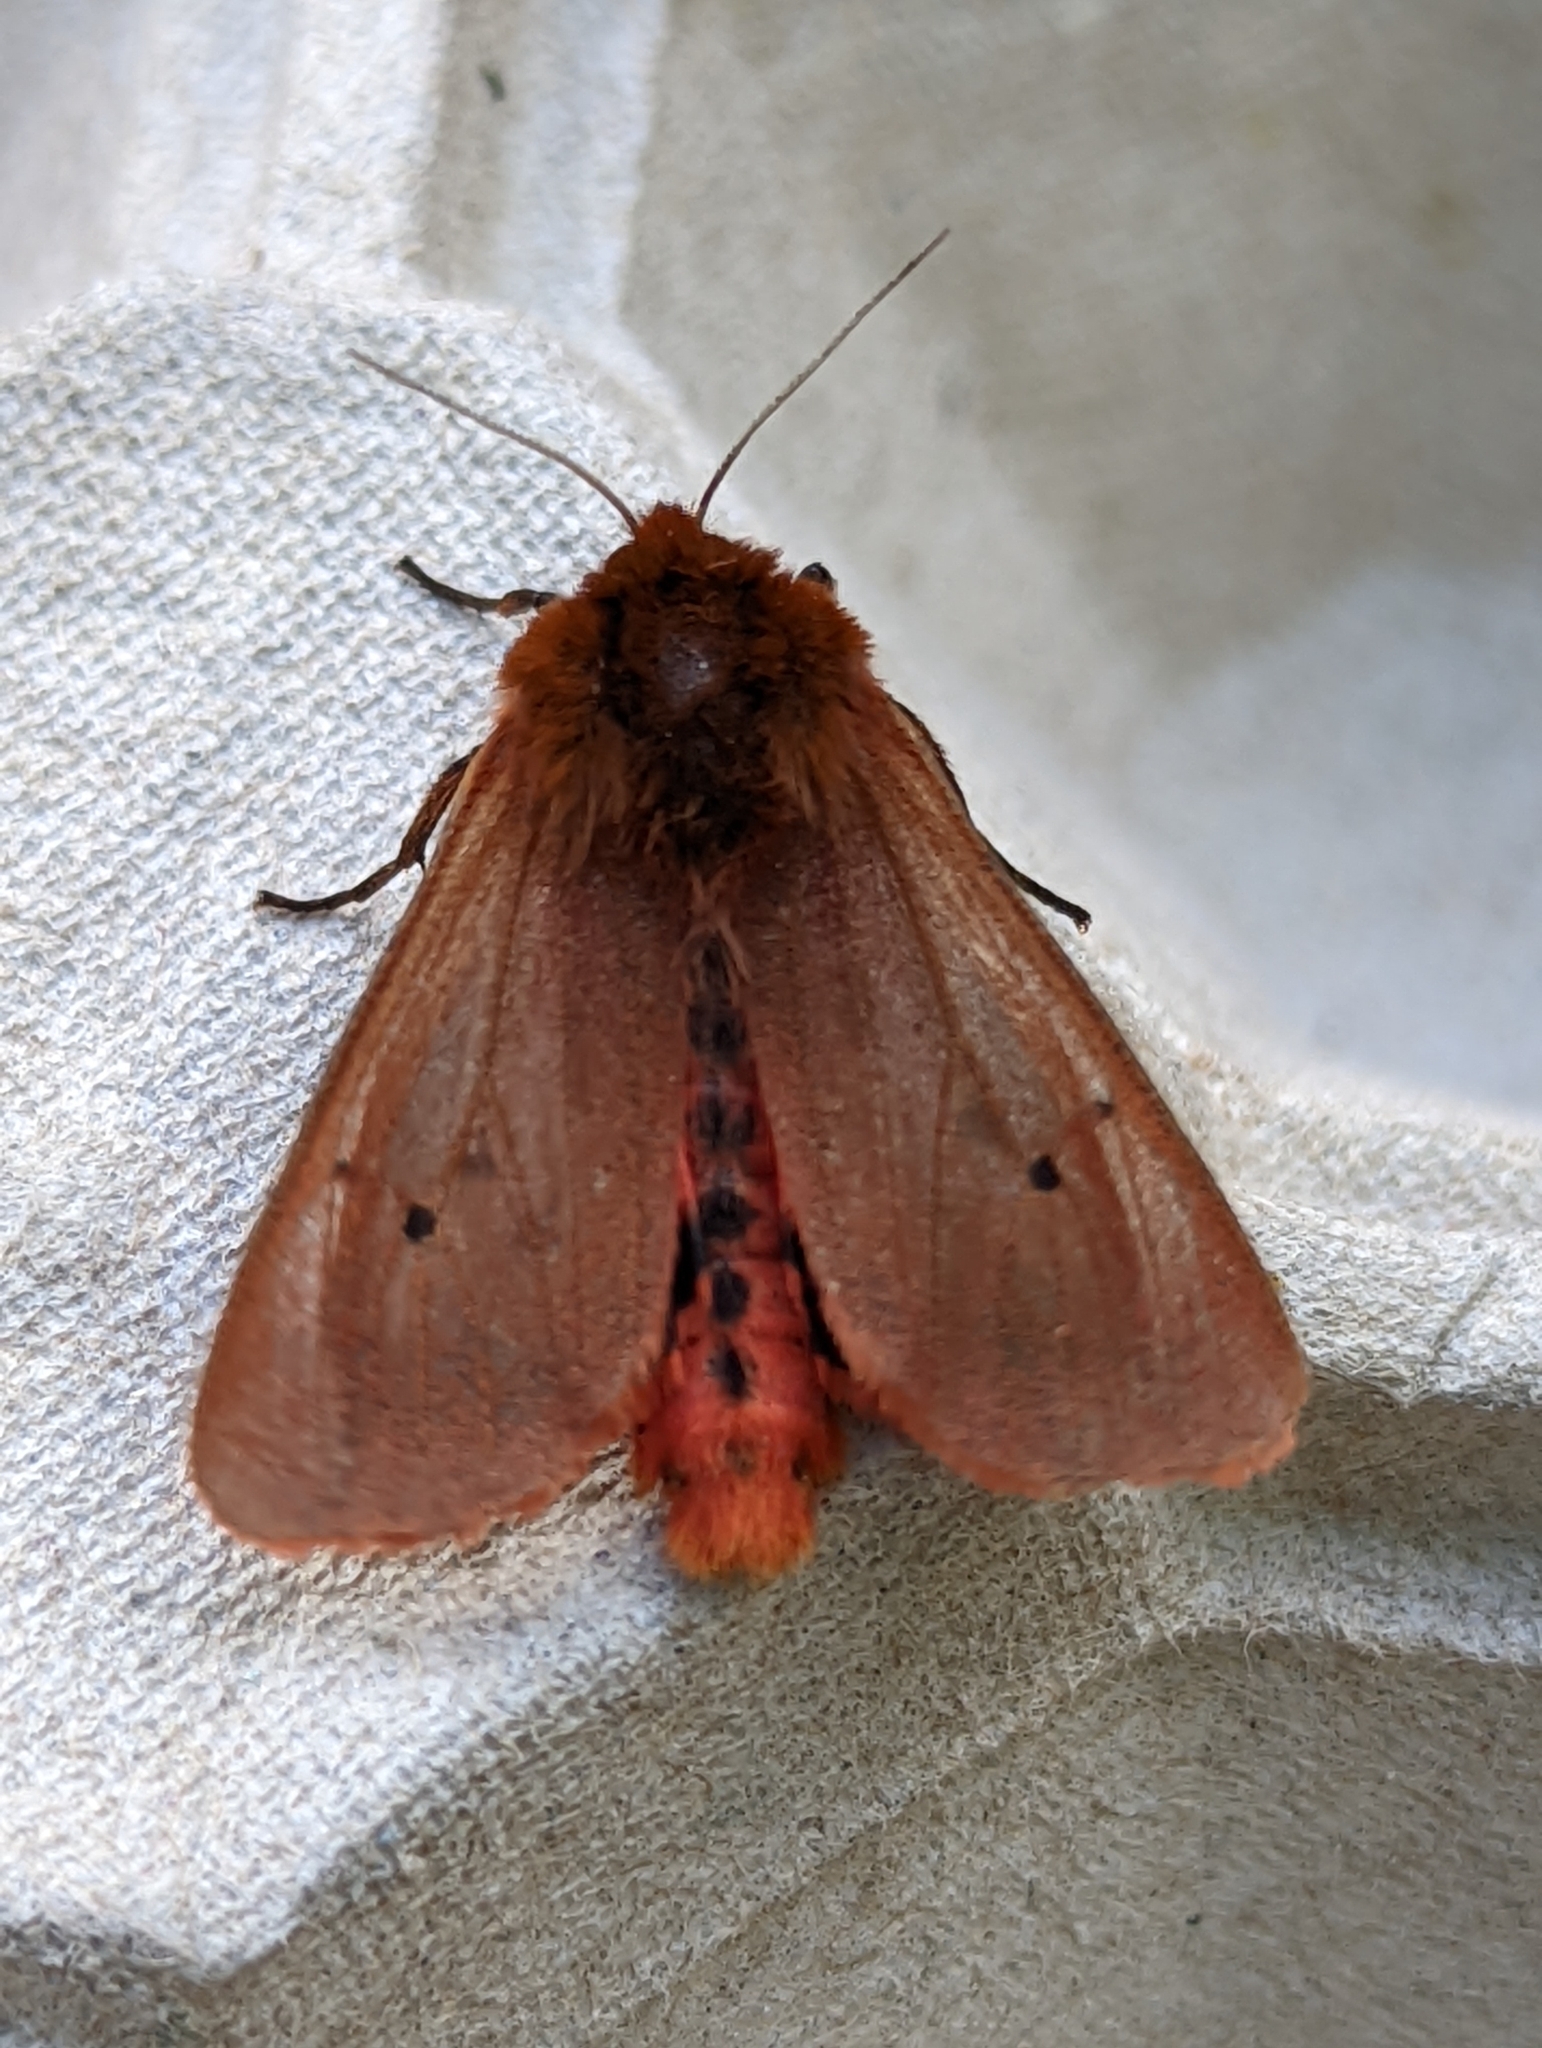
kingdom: Animalia
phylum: Arthropoda
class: Insecta
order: Lepidoptera
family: Erebidae
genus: Phragmatobia
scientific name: Phragmatobia fuliginosa
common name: Ruby tiger
